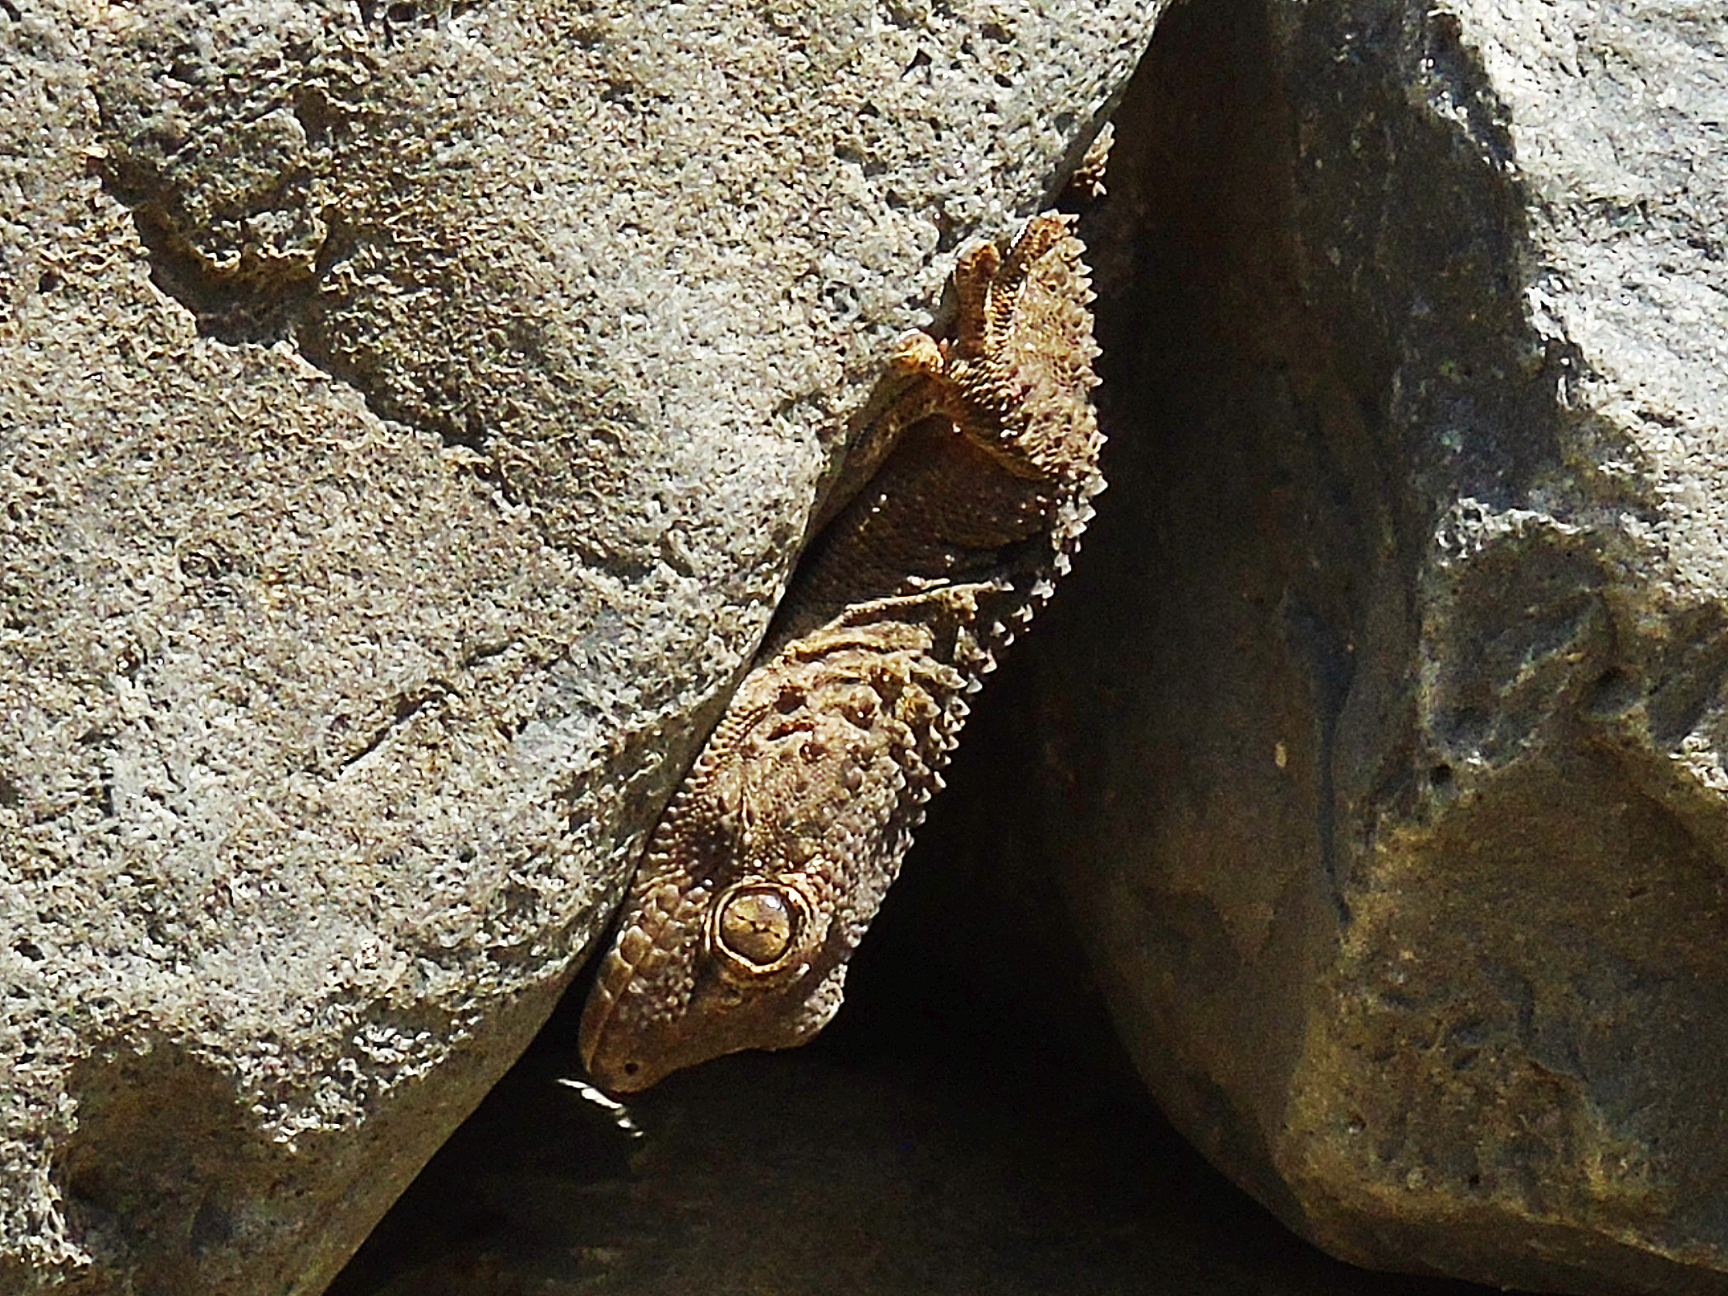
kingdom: Animalia
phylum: Chordata
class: Squamata
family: Phyllodactylidae
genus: Tarentola
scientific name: Tarentola mauritanica
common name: Moorish gecko
